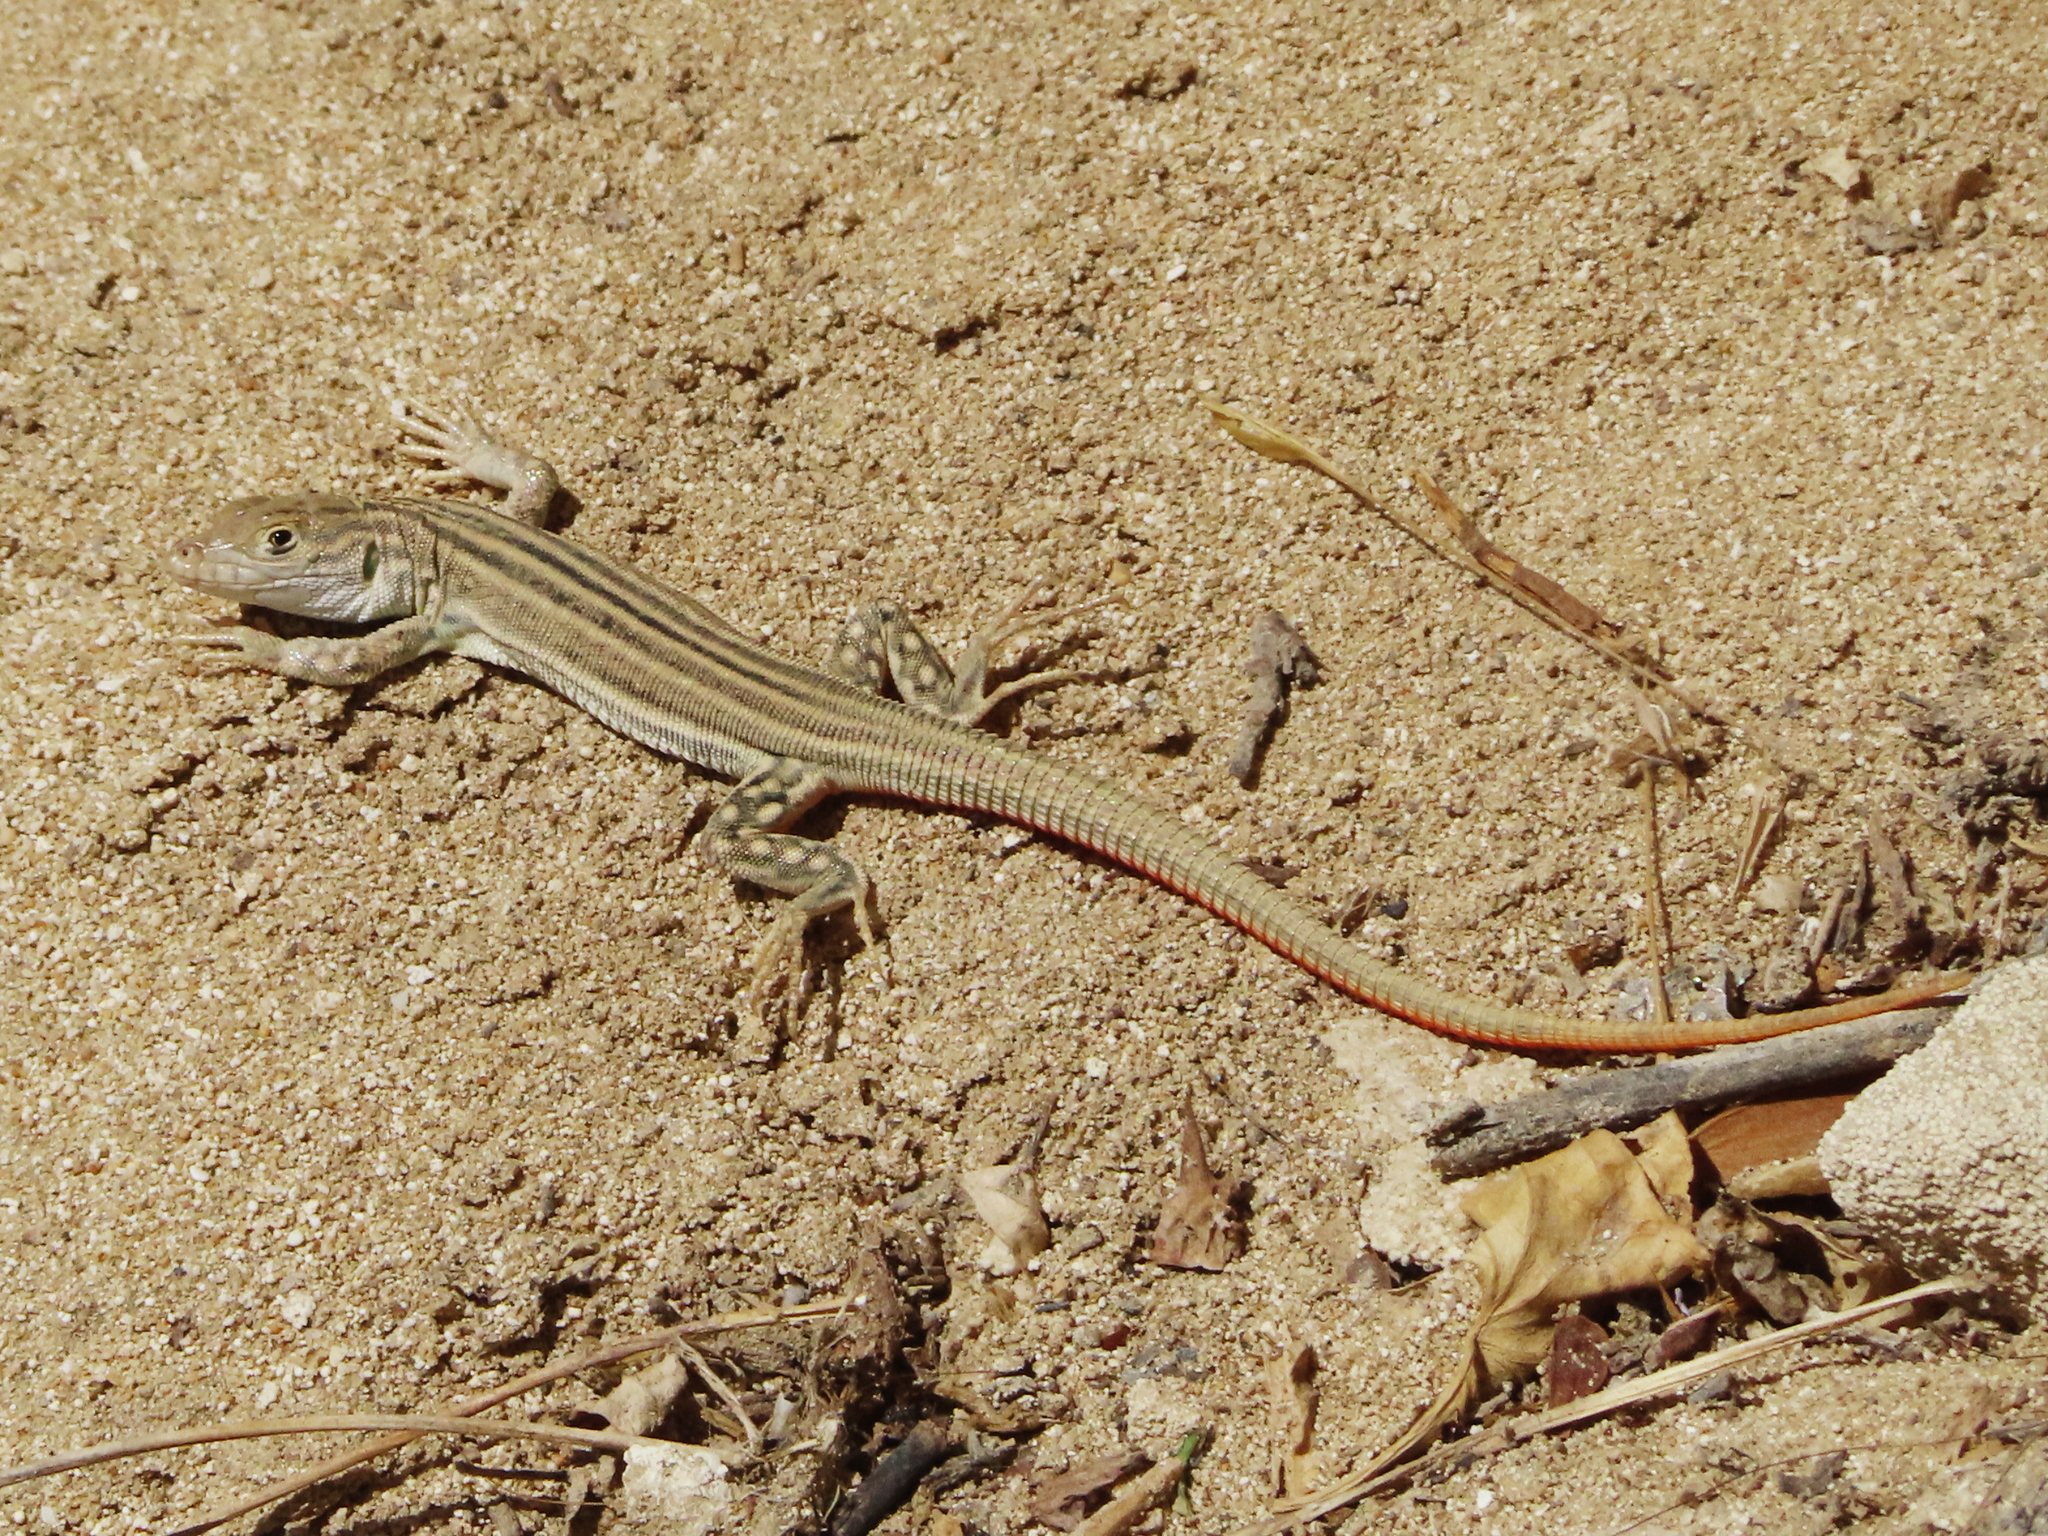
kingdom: Animalia
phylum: Chordata
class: Squamata
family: Lacertidae
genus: Eremias
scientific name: Eremias velox
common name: Central asian racerunner
